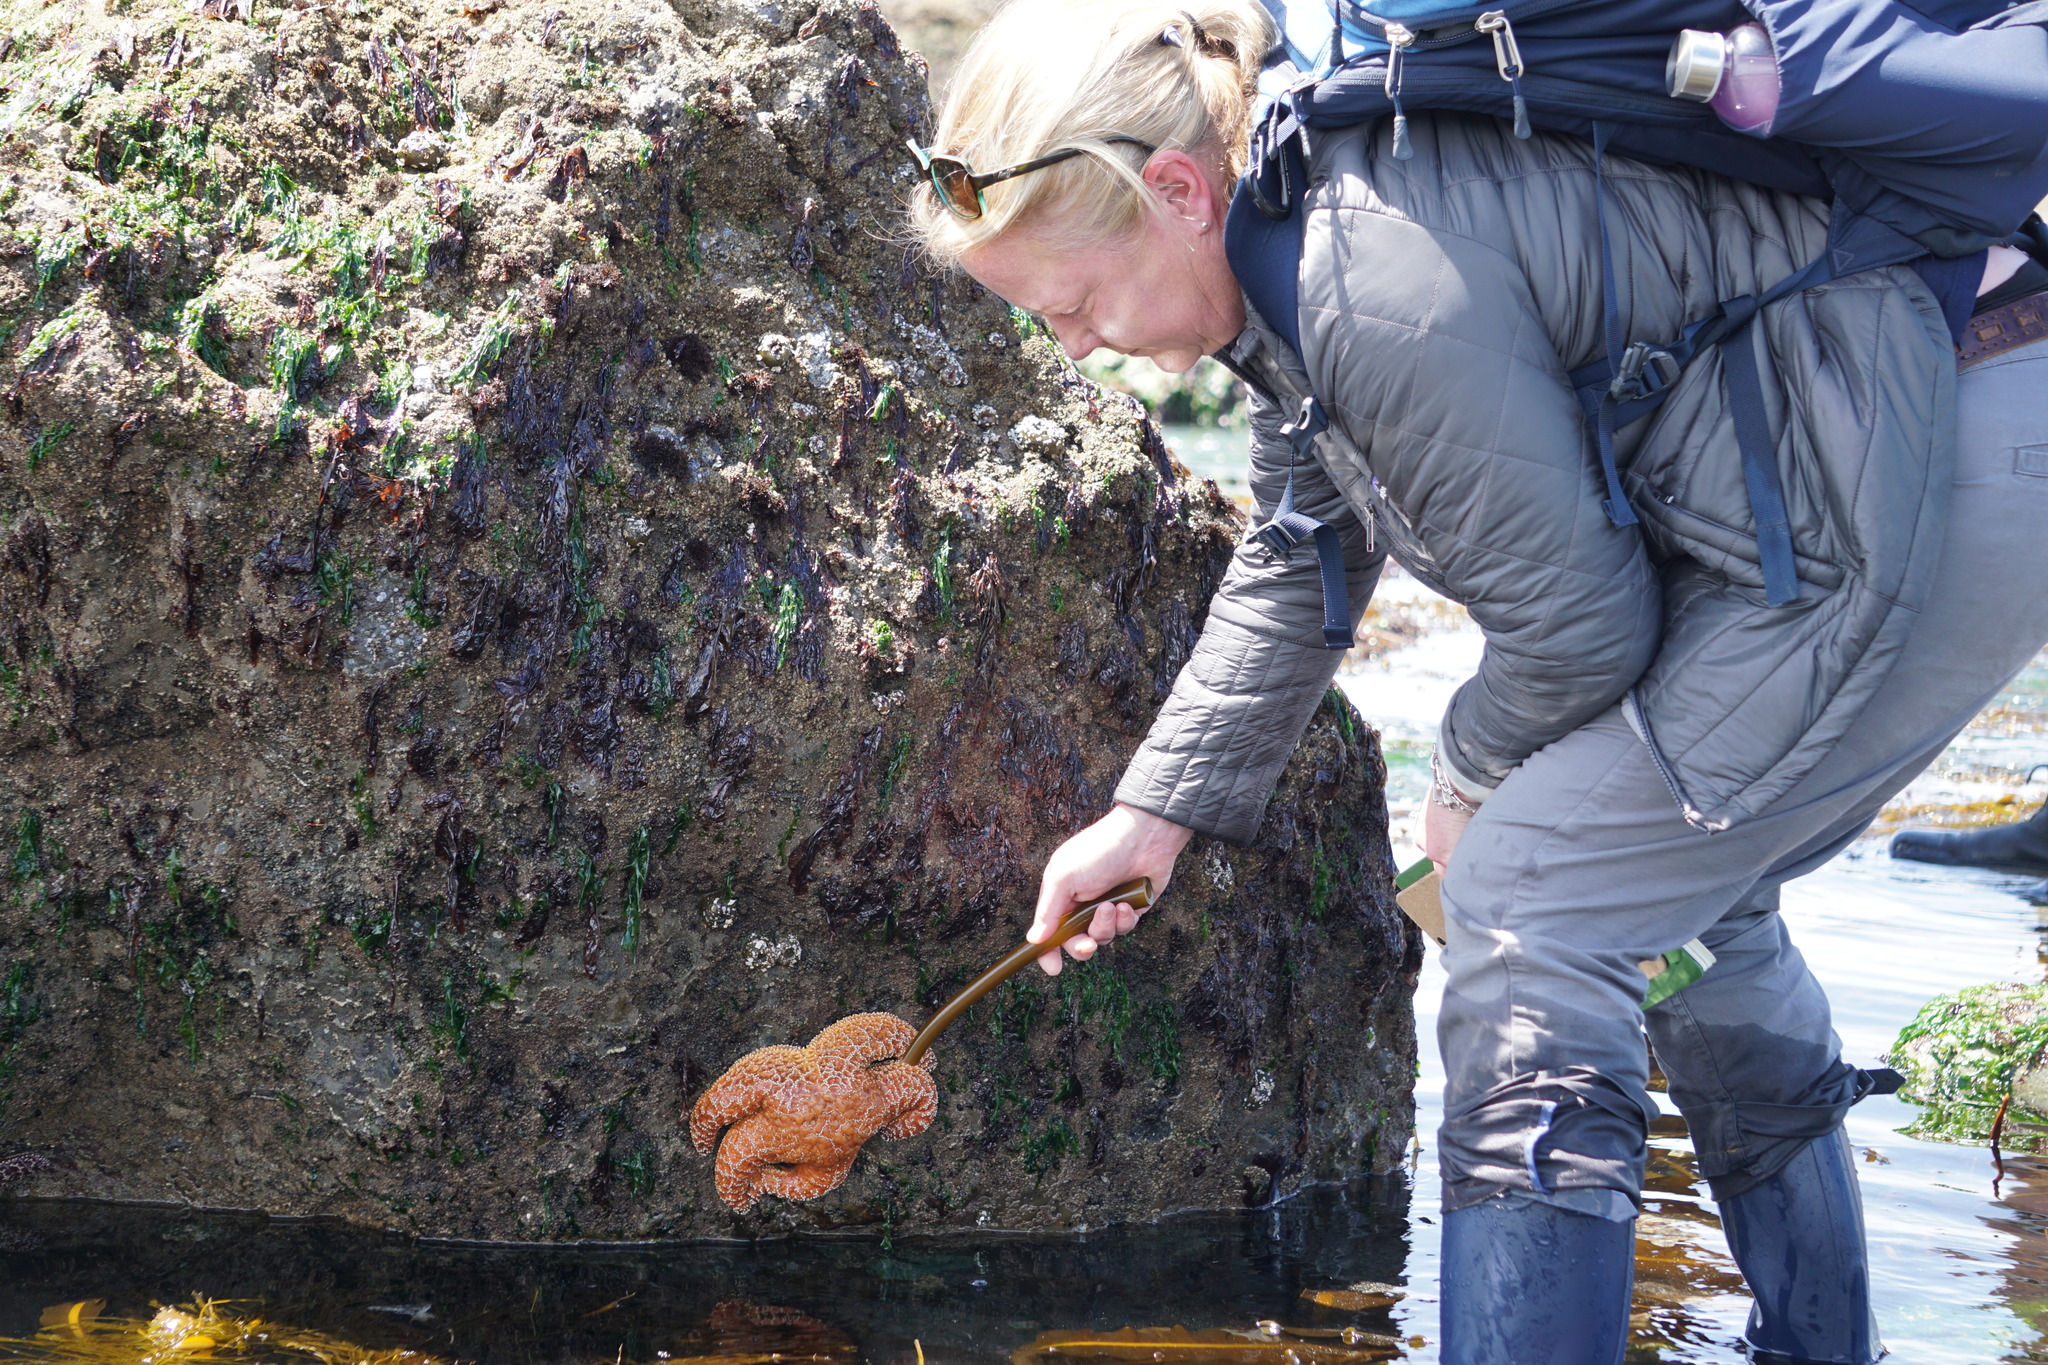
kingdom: Animalia
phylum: Echinodermata
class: Asteroidea
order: Forcipulatida
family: Asteriidae
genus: Pisaster
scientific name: Pisaster ochraceus
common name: Ochre stars
